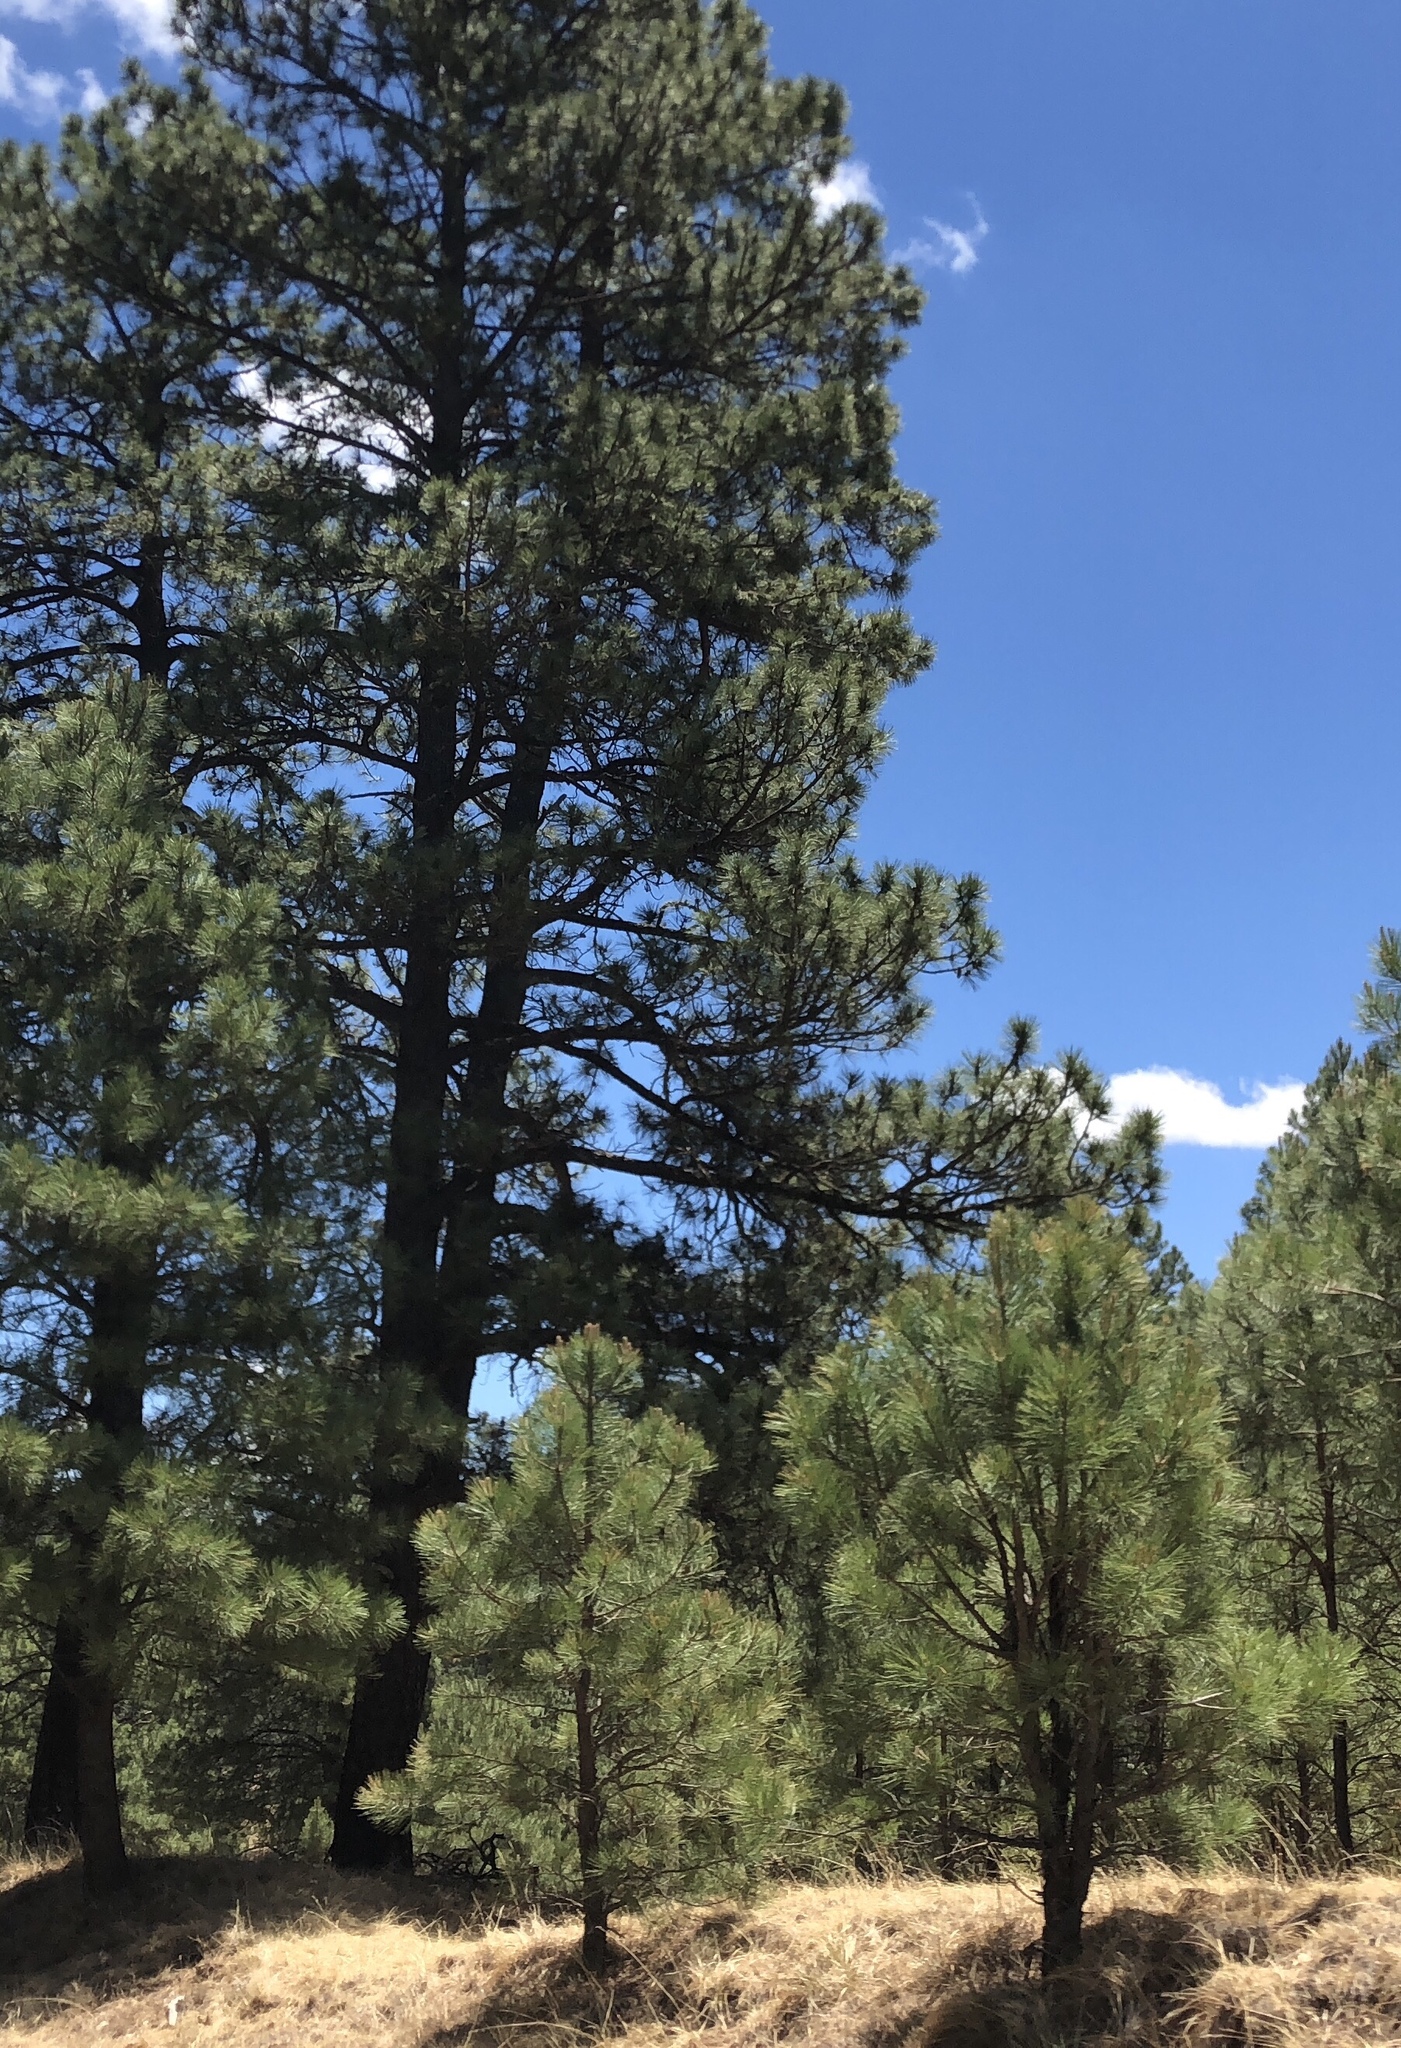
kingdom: Plantae
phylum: Tracheophyta
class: Pinopsida
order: Pinales
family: Pinaceae
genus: Pinus
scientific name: Pinus ponderosa
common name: Western yellow-pine
